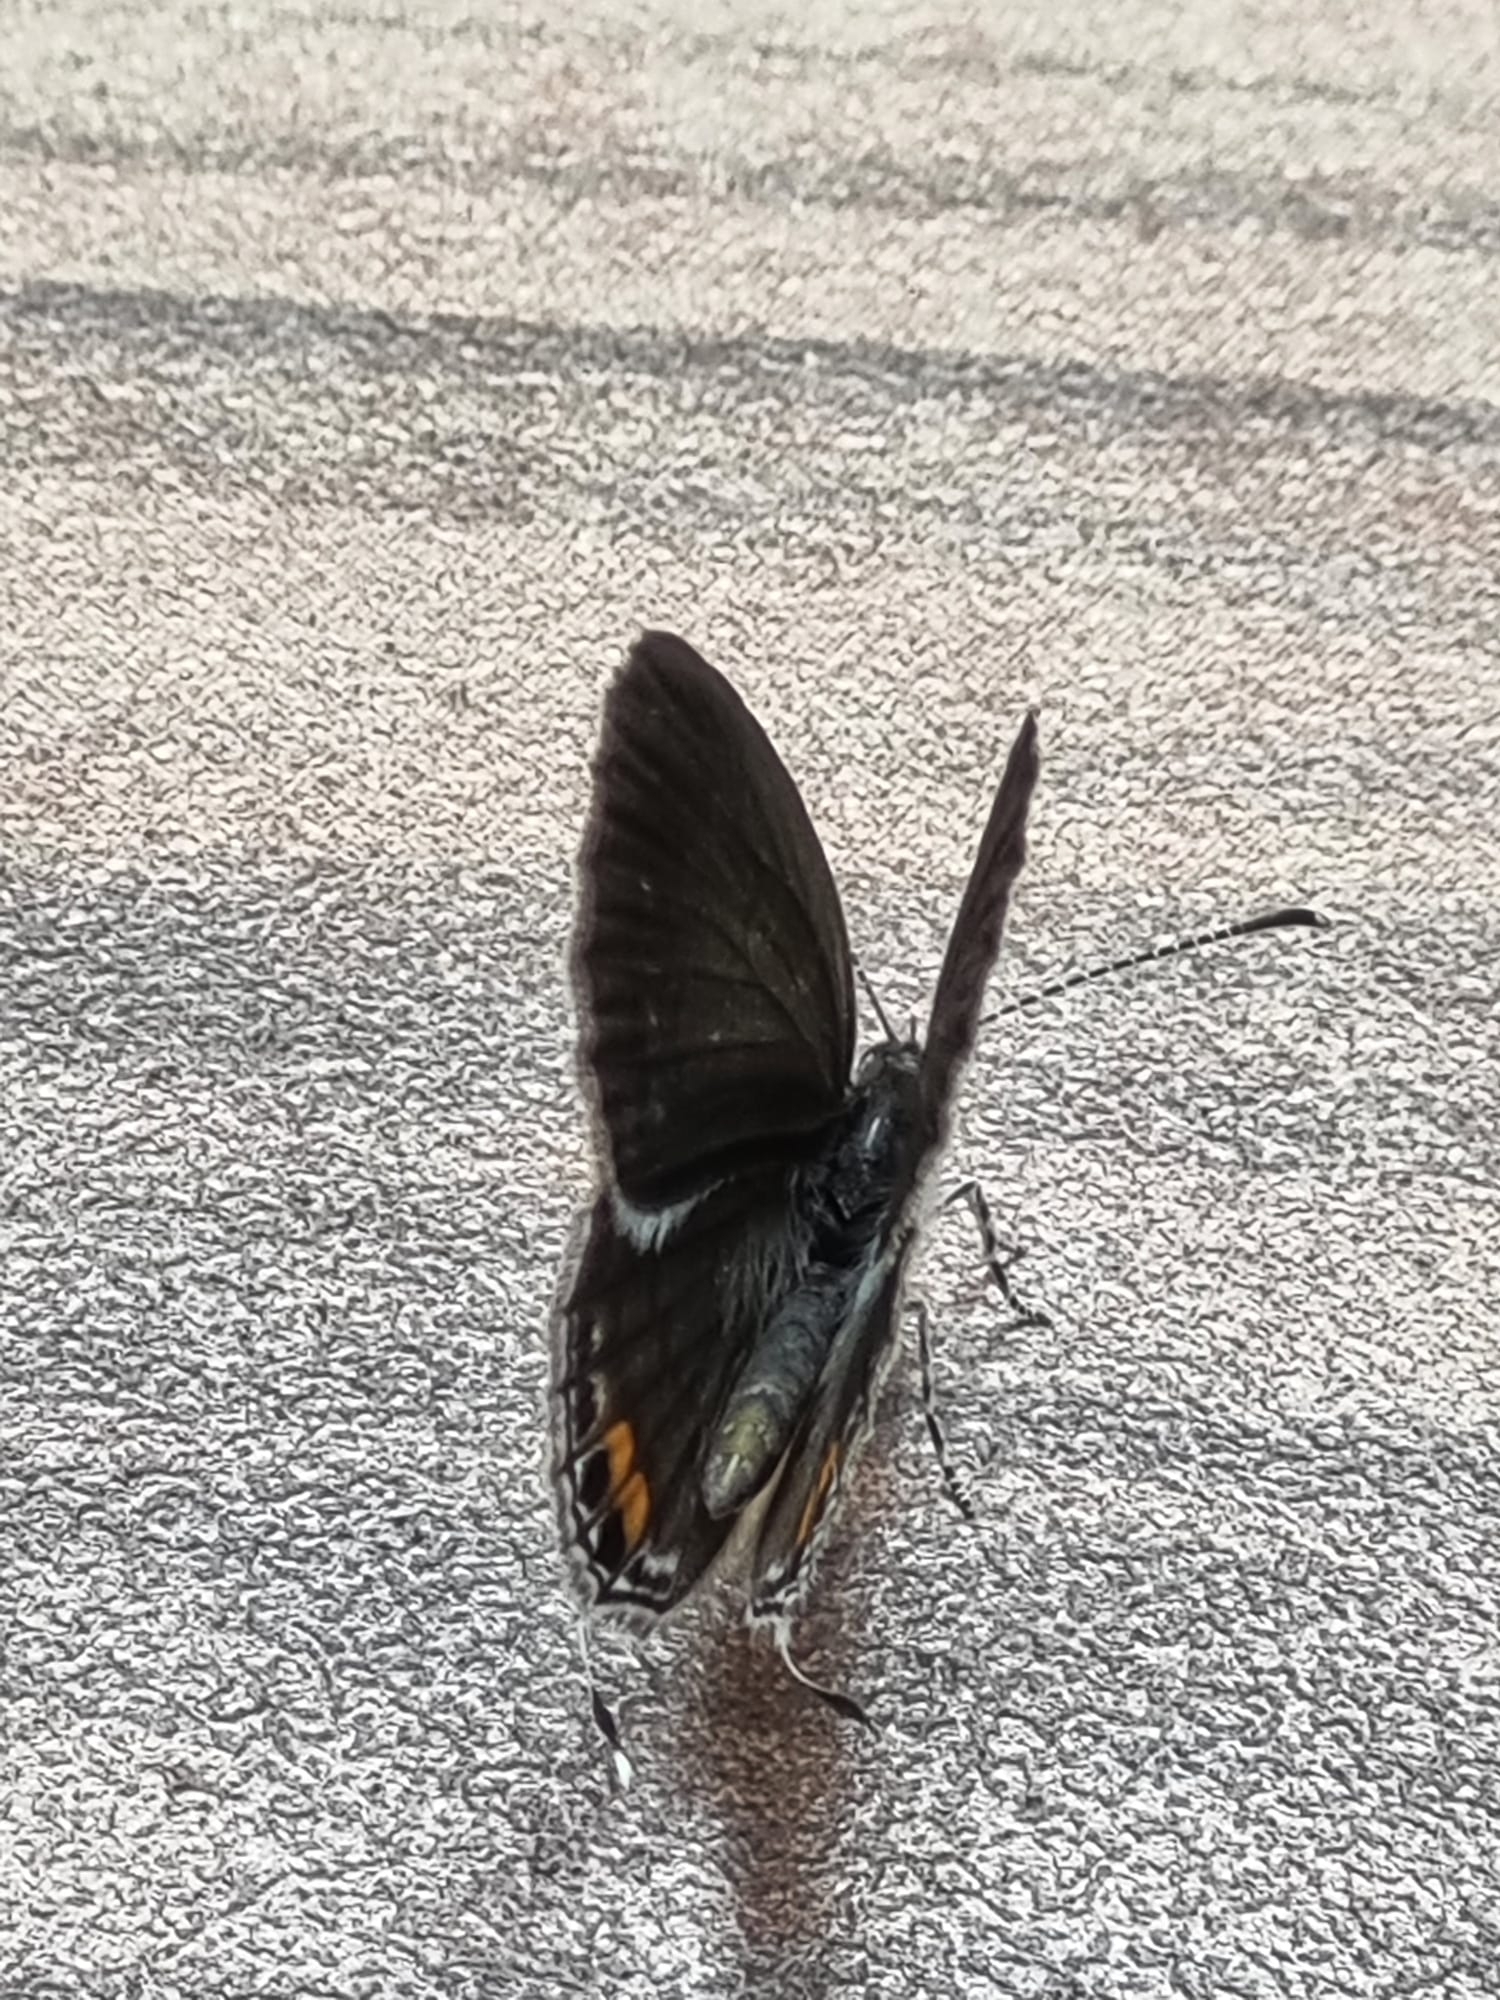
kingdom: Animalia
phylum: Arthropoda
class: Insecta
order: Lepidoptera
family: Lycaenidae
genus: Everes
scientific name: Everes lacturnus
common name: Orange-tipped pea-blue
